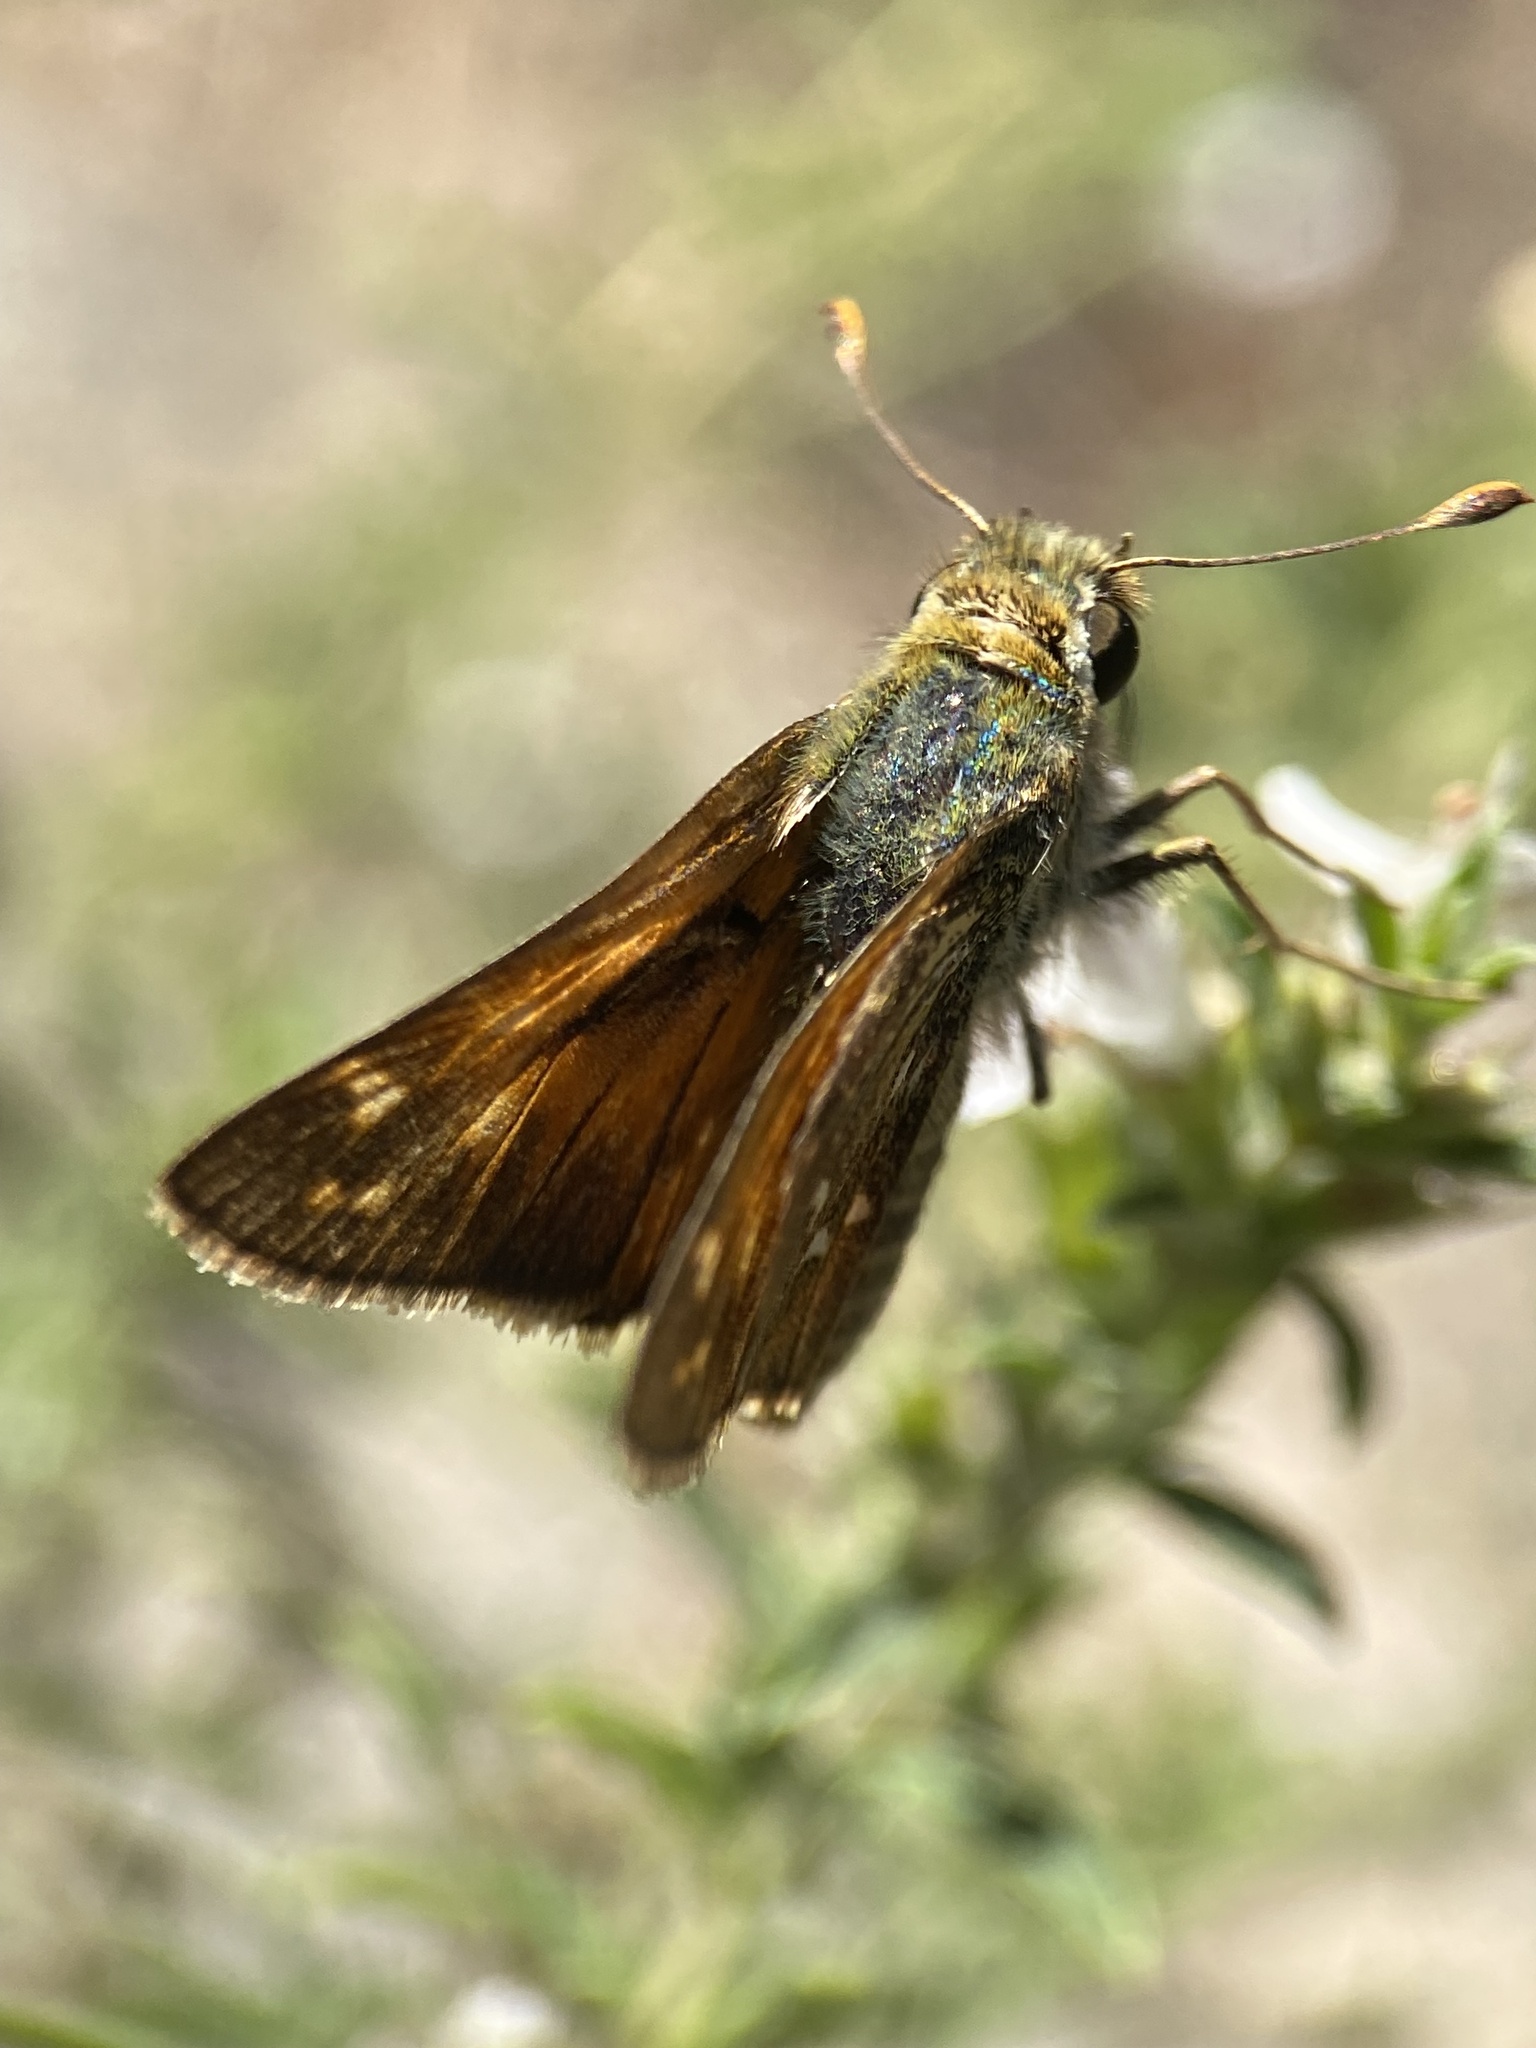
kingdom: Animalia
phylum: Arthropoda
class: Insecta
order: Lepidoptera
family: Hesperiidae
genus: Hesperia
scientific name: Hesperia comma
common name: Common branded skipper
